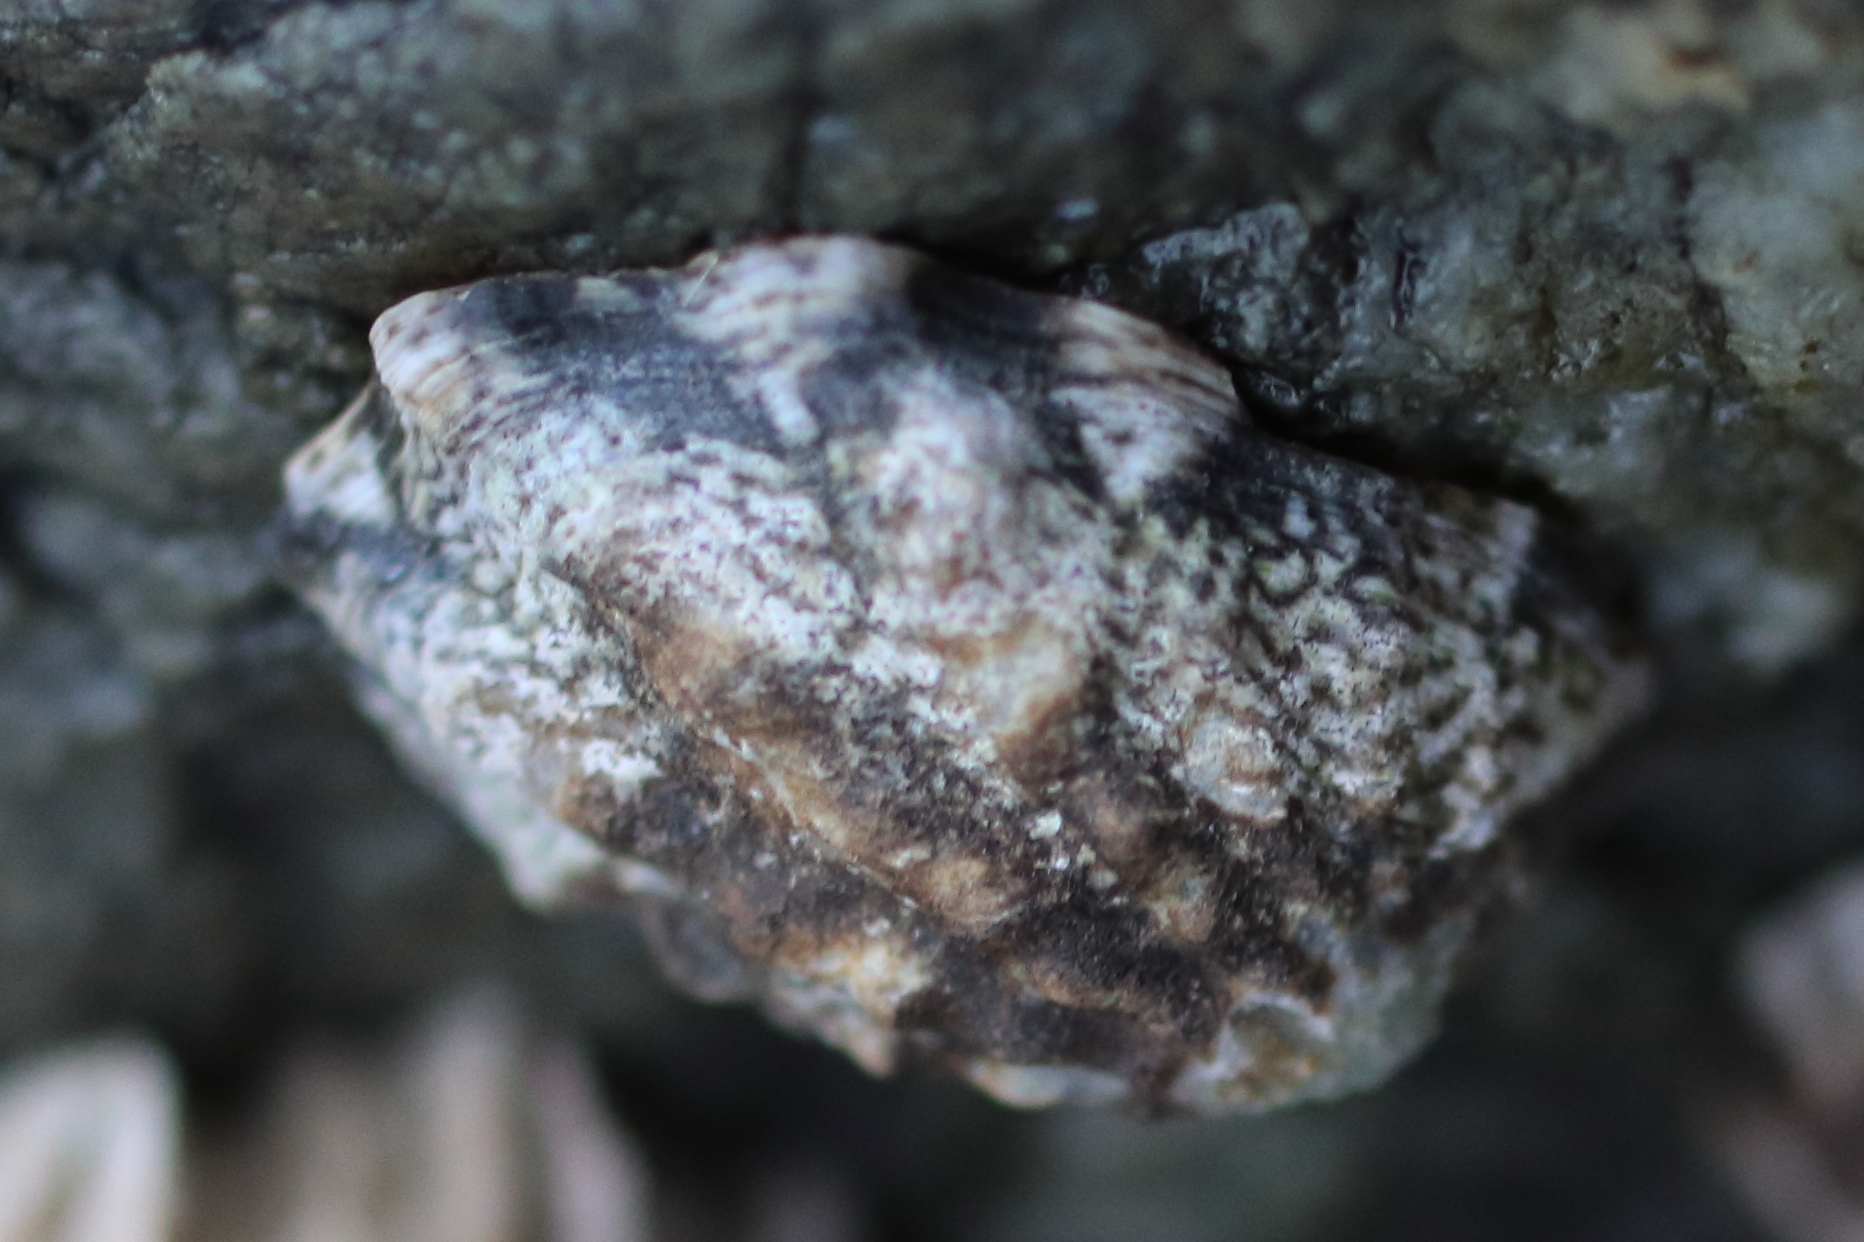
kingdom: Animalia
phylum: Mollusca
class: Gastropoda
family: Lottiidae
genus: Lottia
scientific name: Lottia digitalis
